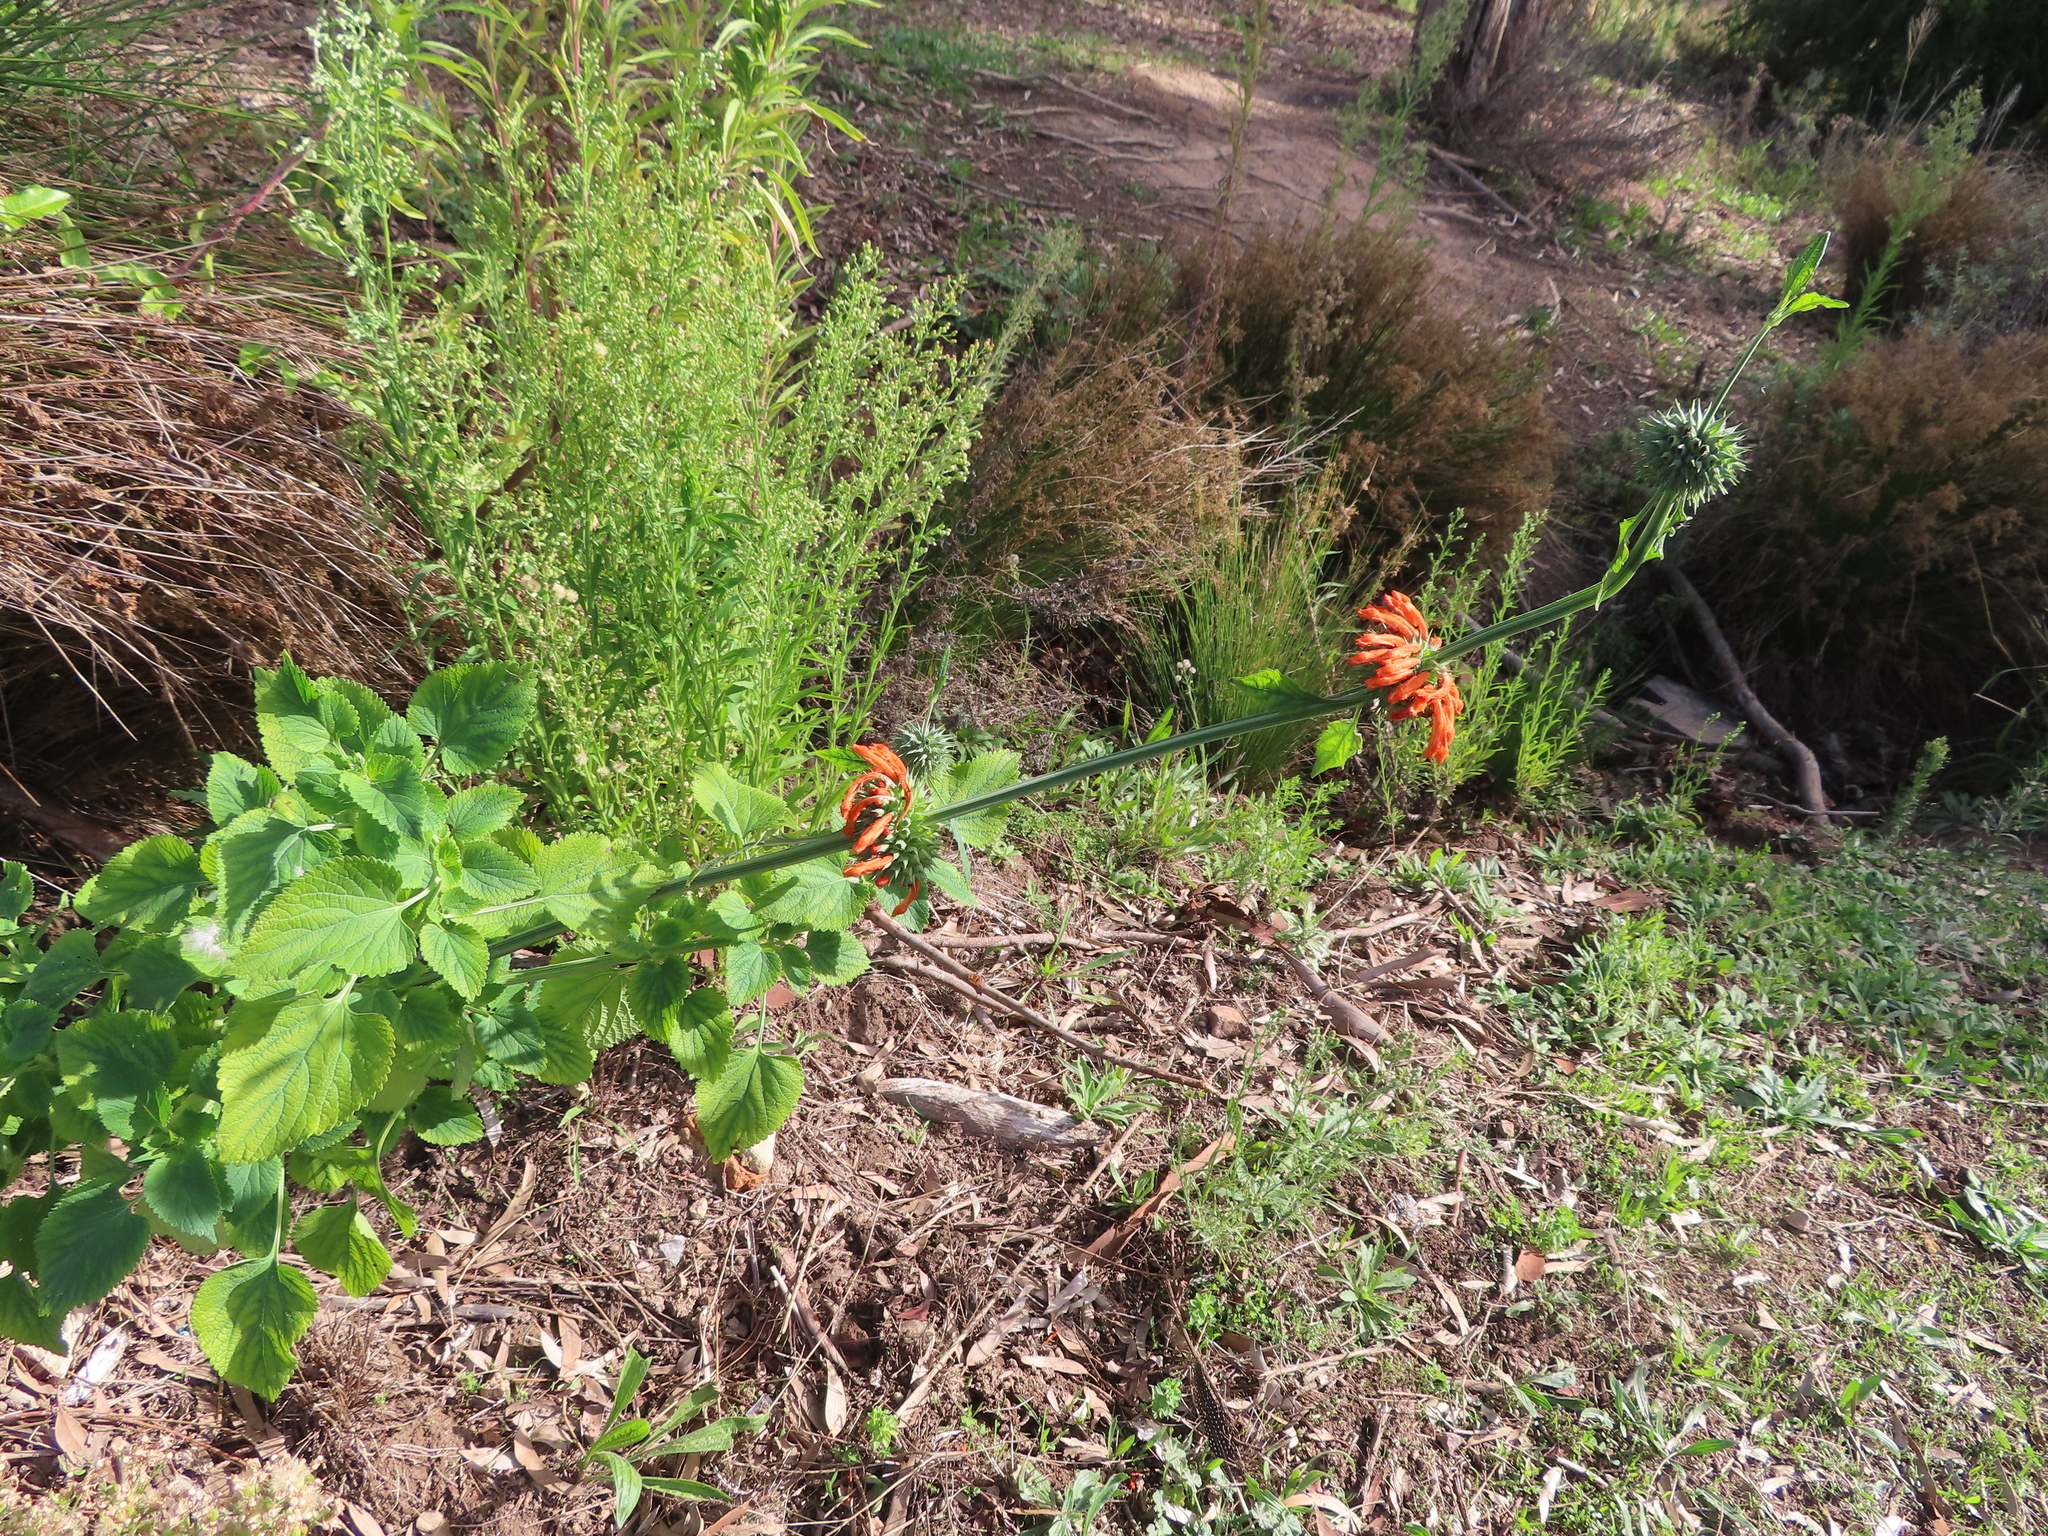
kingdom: Plantae
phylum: Tracheophyta
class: Magnoliopsida
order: Lamiales
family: Lamiaceae
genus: Leonotis
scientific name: Leonotis nepetifolia
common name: Christmas candlestick
